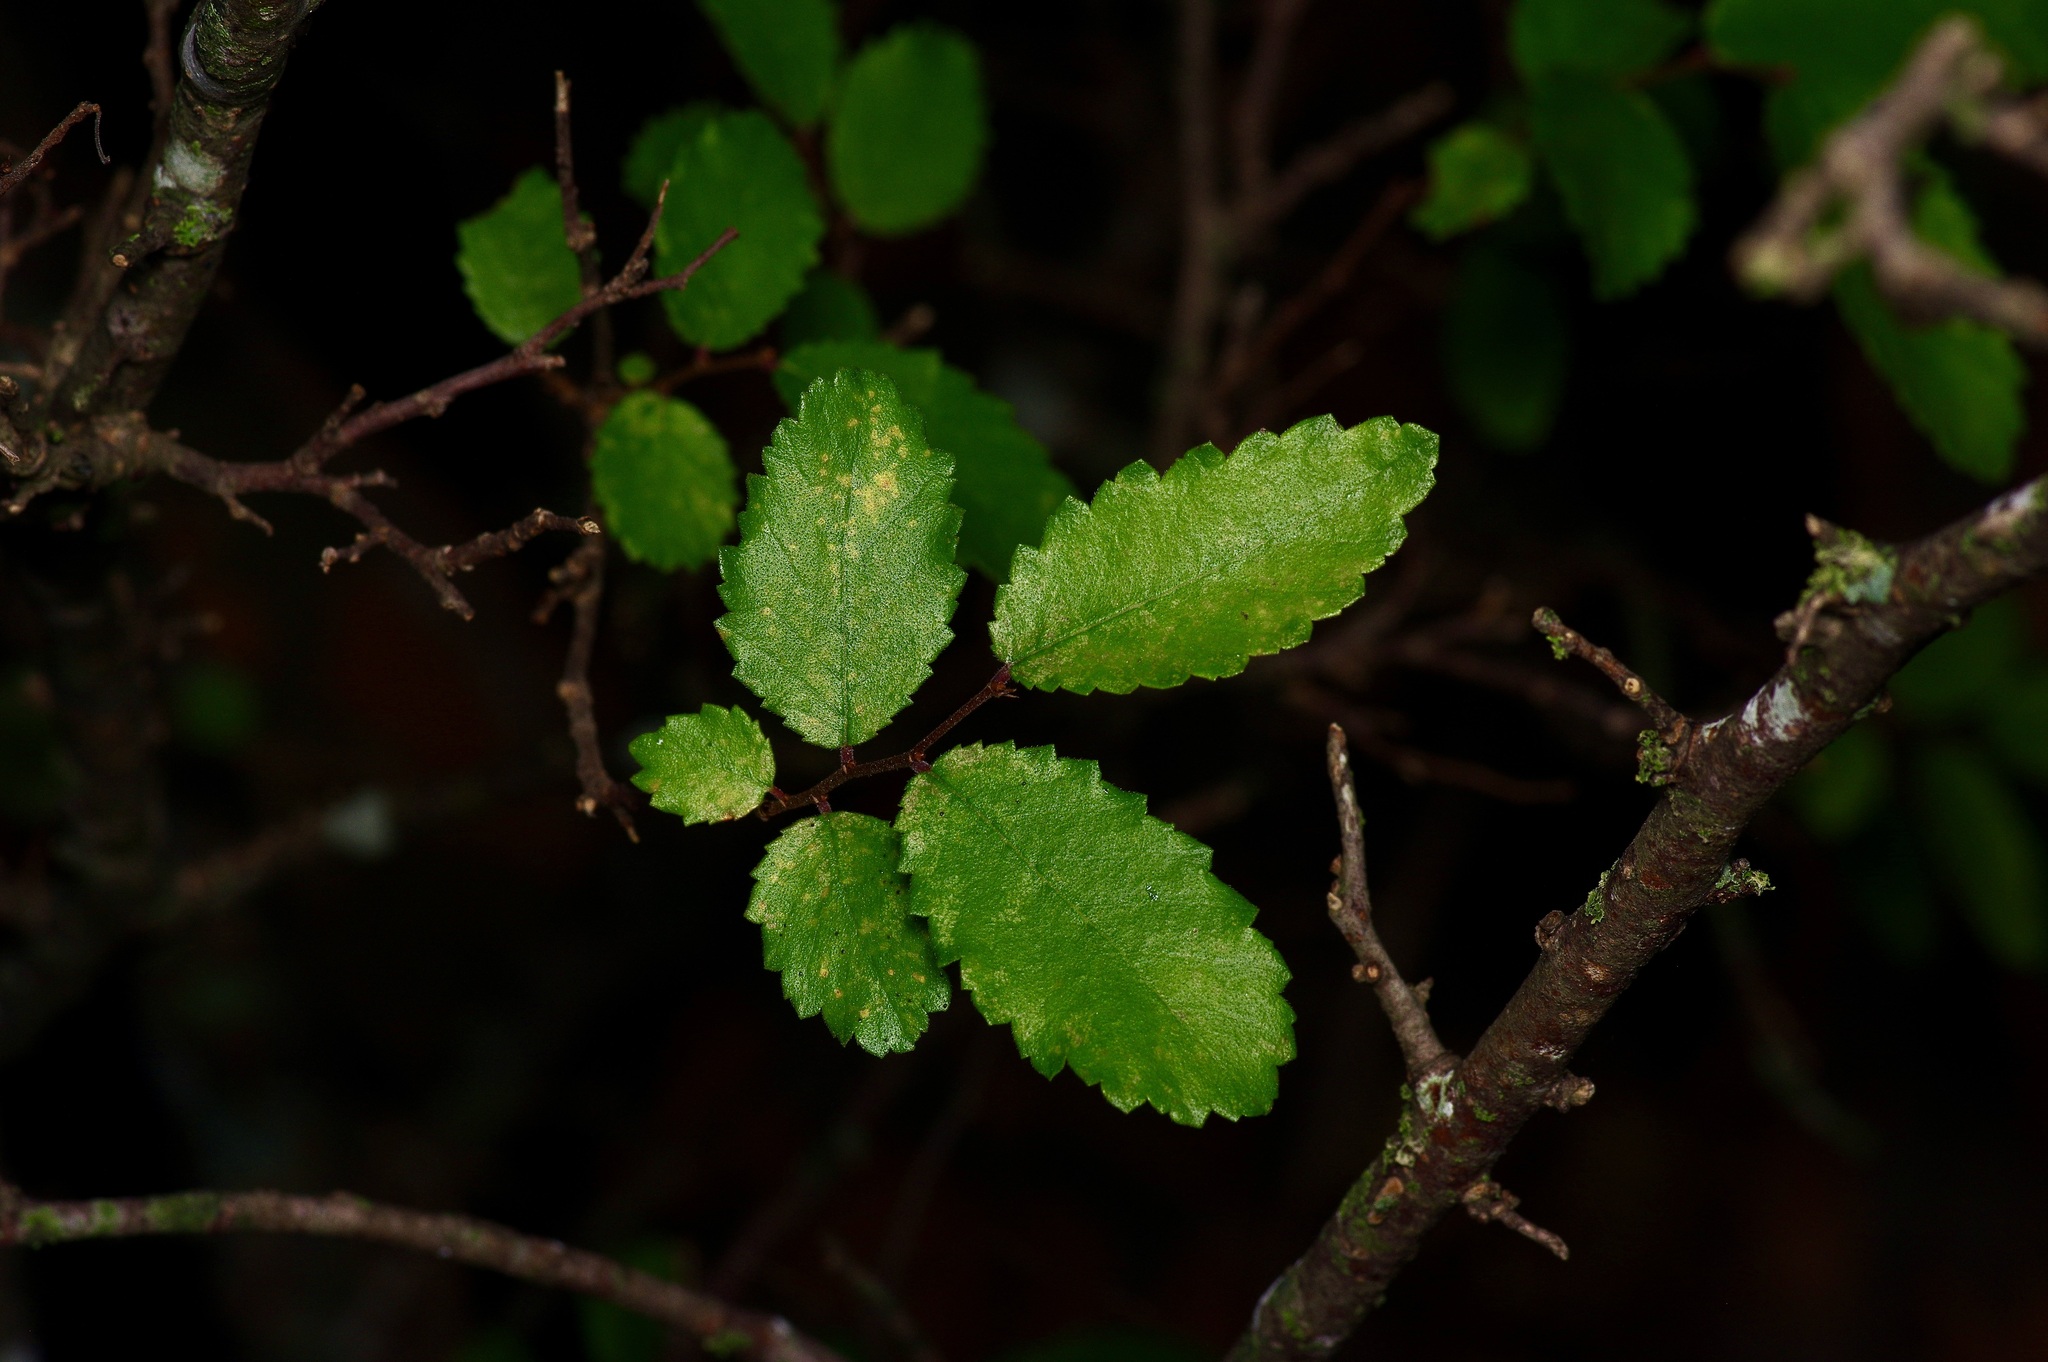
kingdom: Plantae
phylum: Tracheophyta
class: Magnoliopsida
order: Rosales
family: Ulmaceae
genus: Ulmus
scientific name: Ulmus parvifolia
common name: Chinese elm
